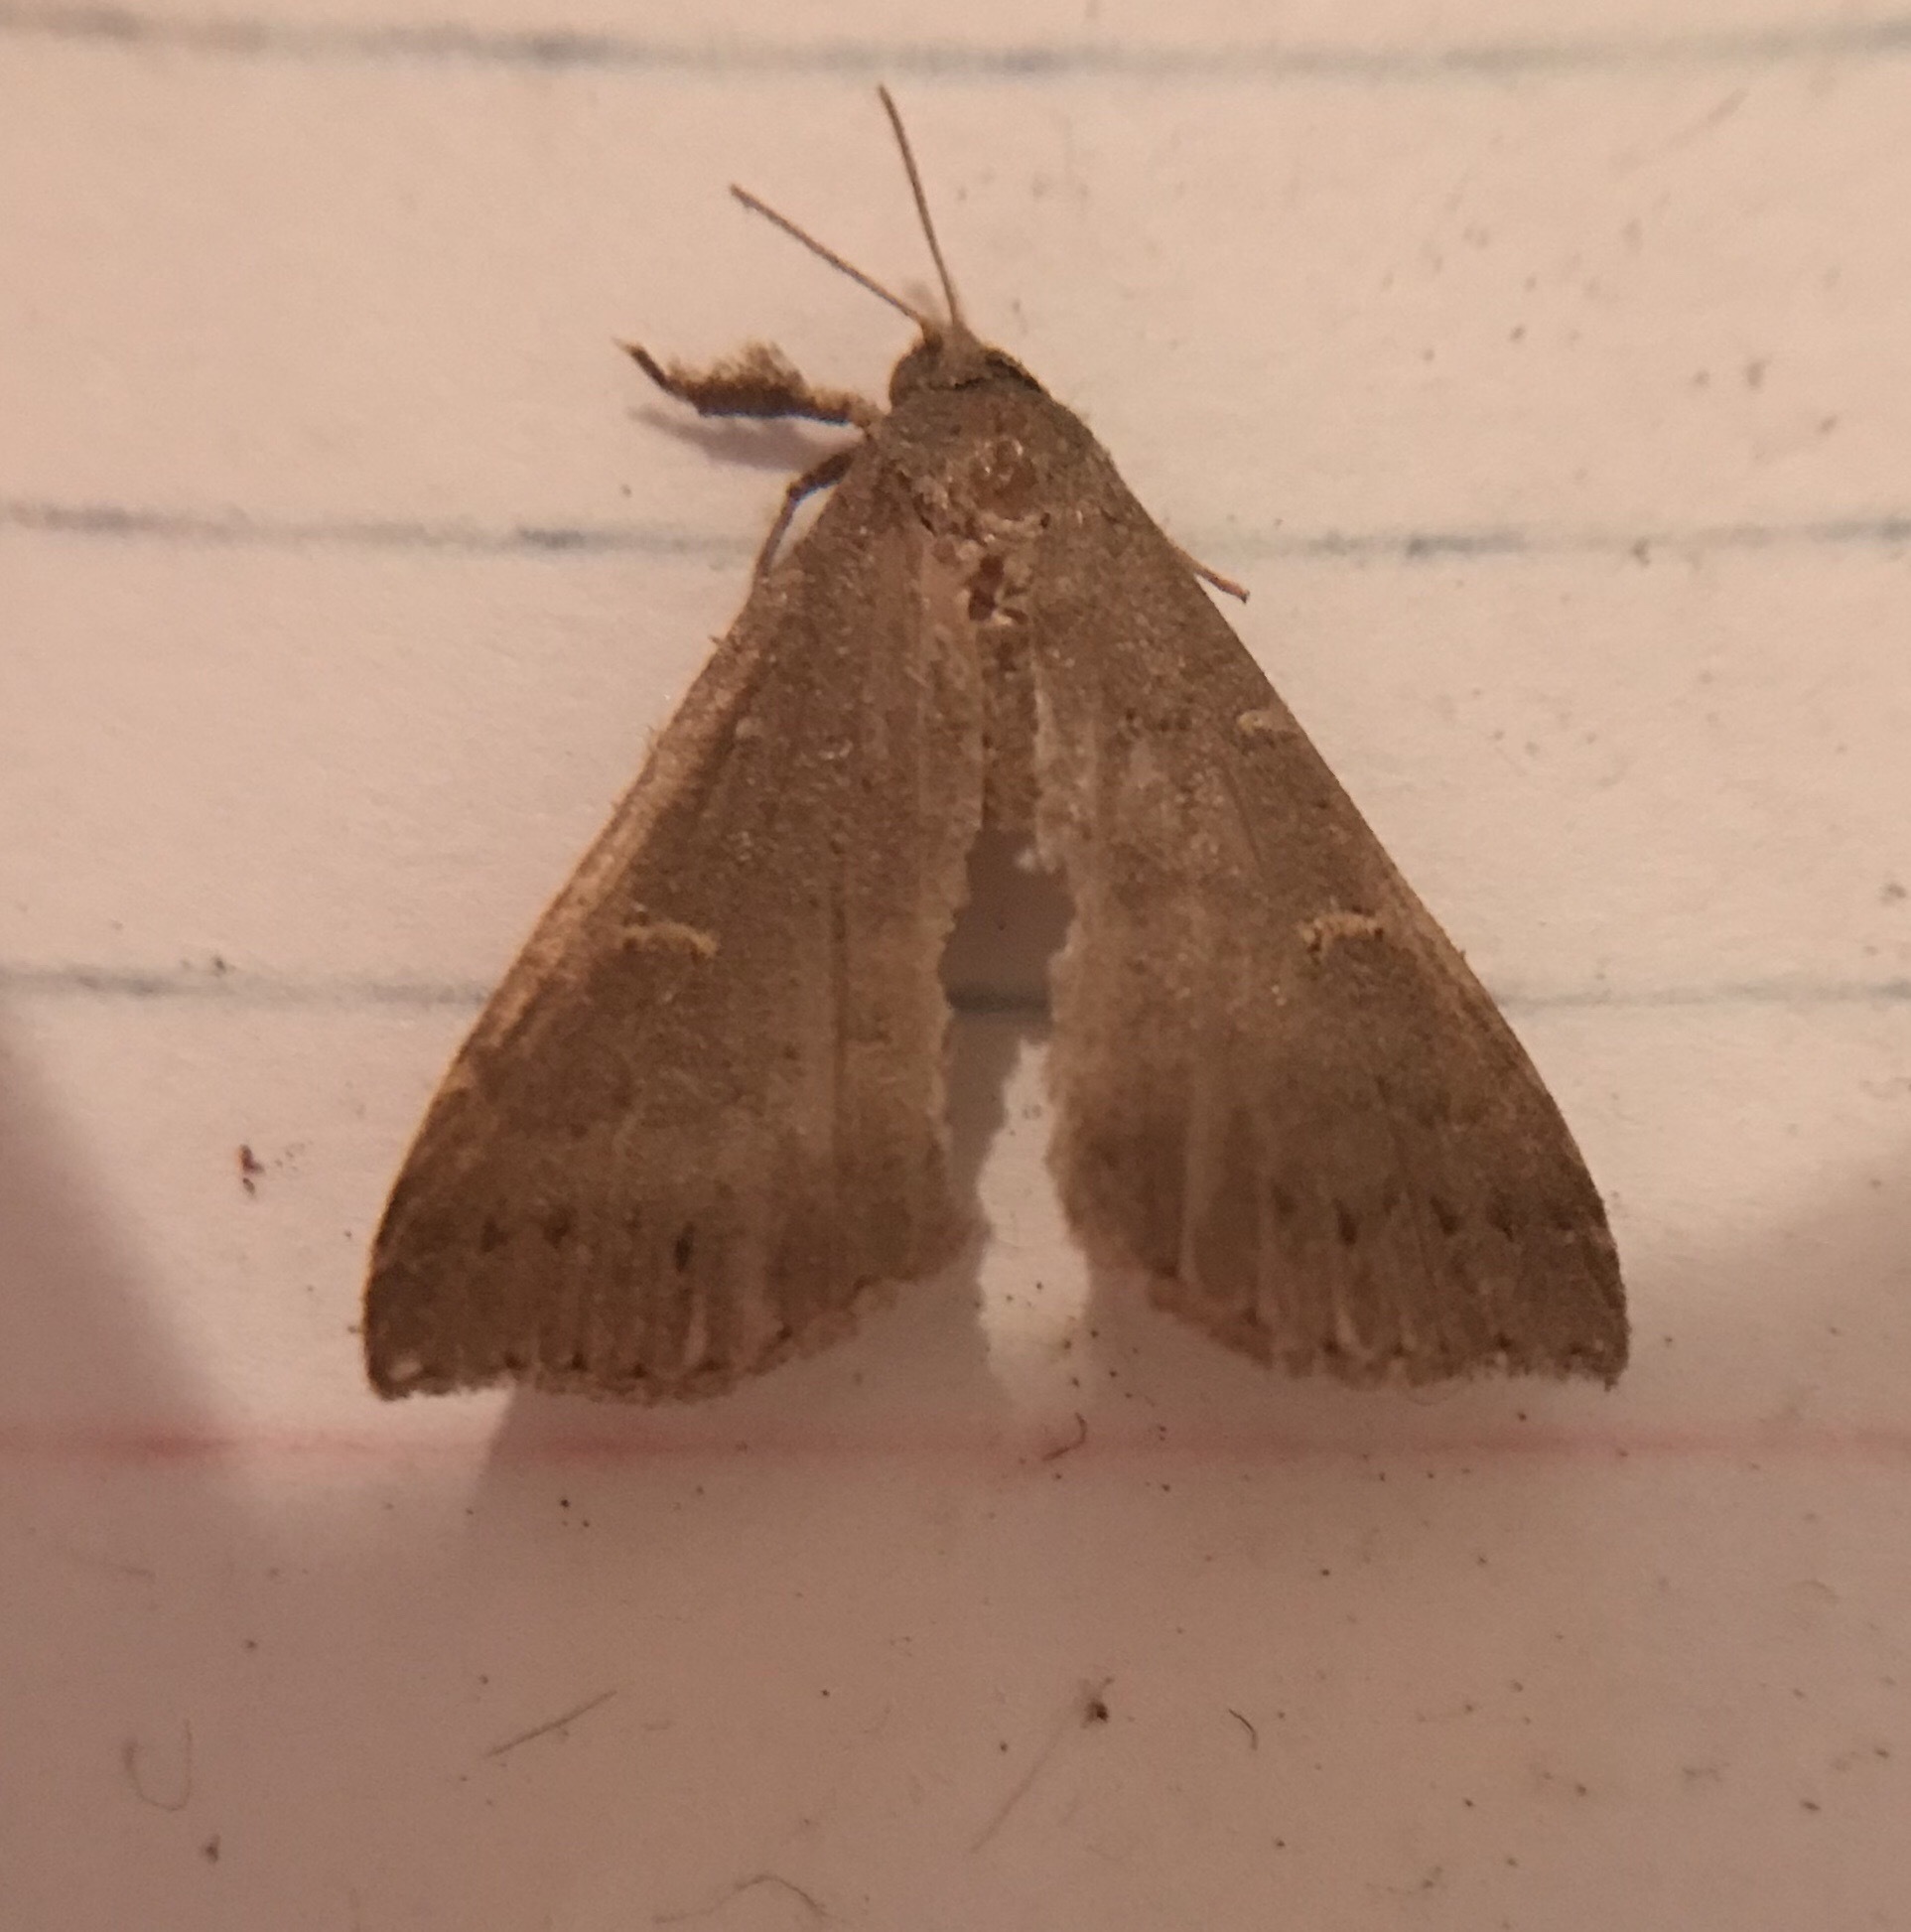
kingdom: Animalia
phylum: Arthropoda
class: Insecta
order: Lepidoptera
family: Erebidae
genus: Tetanolita
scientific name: Tetanolita mynesalis
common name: Smoky tetanolita moth
